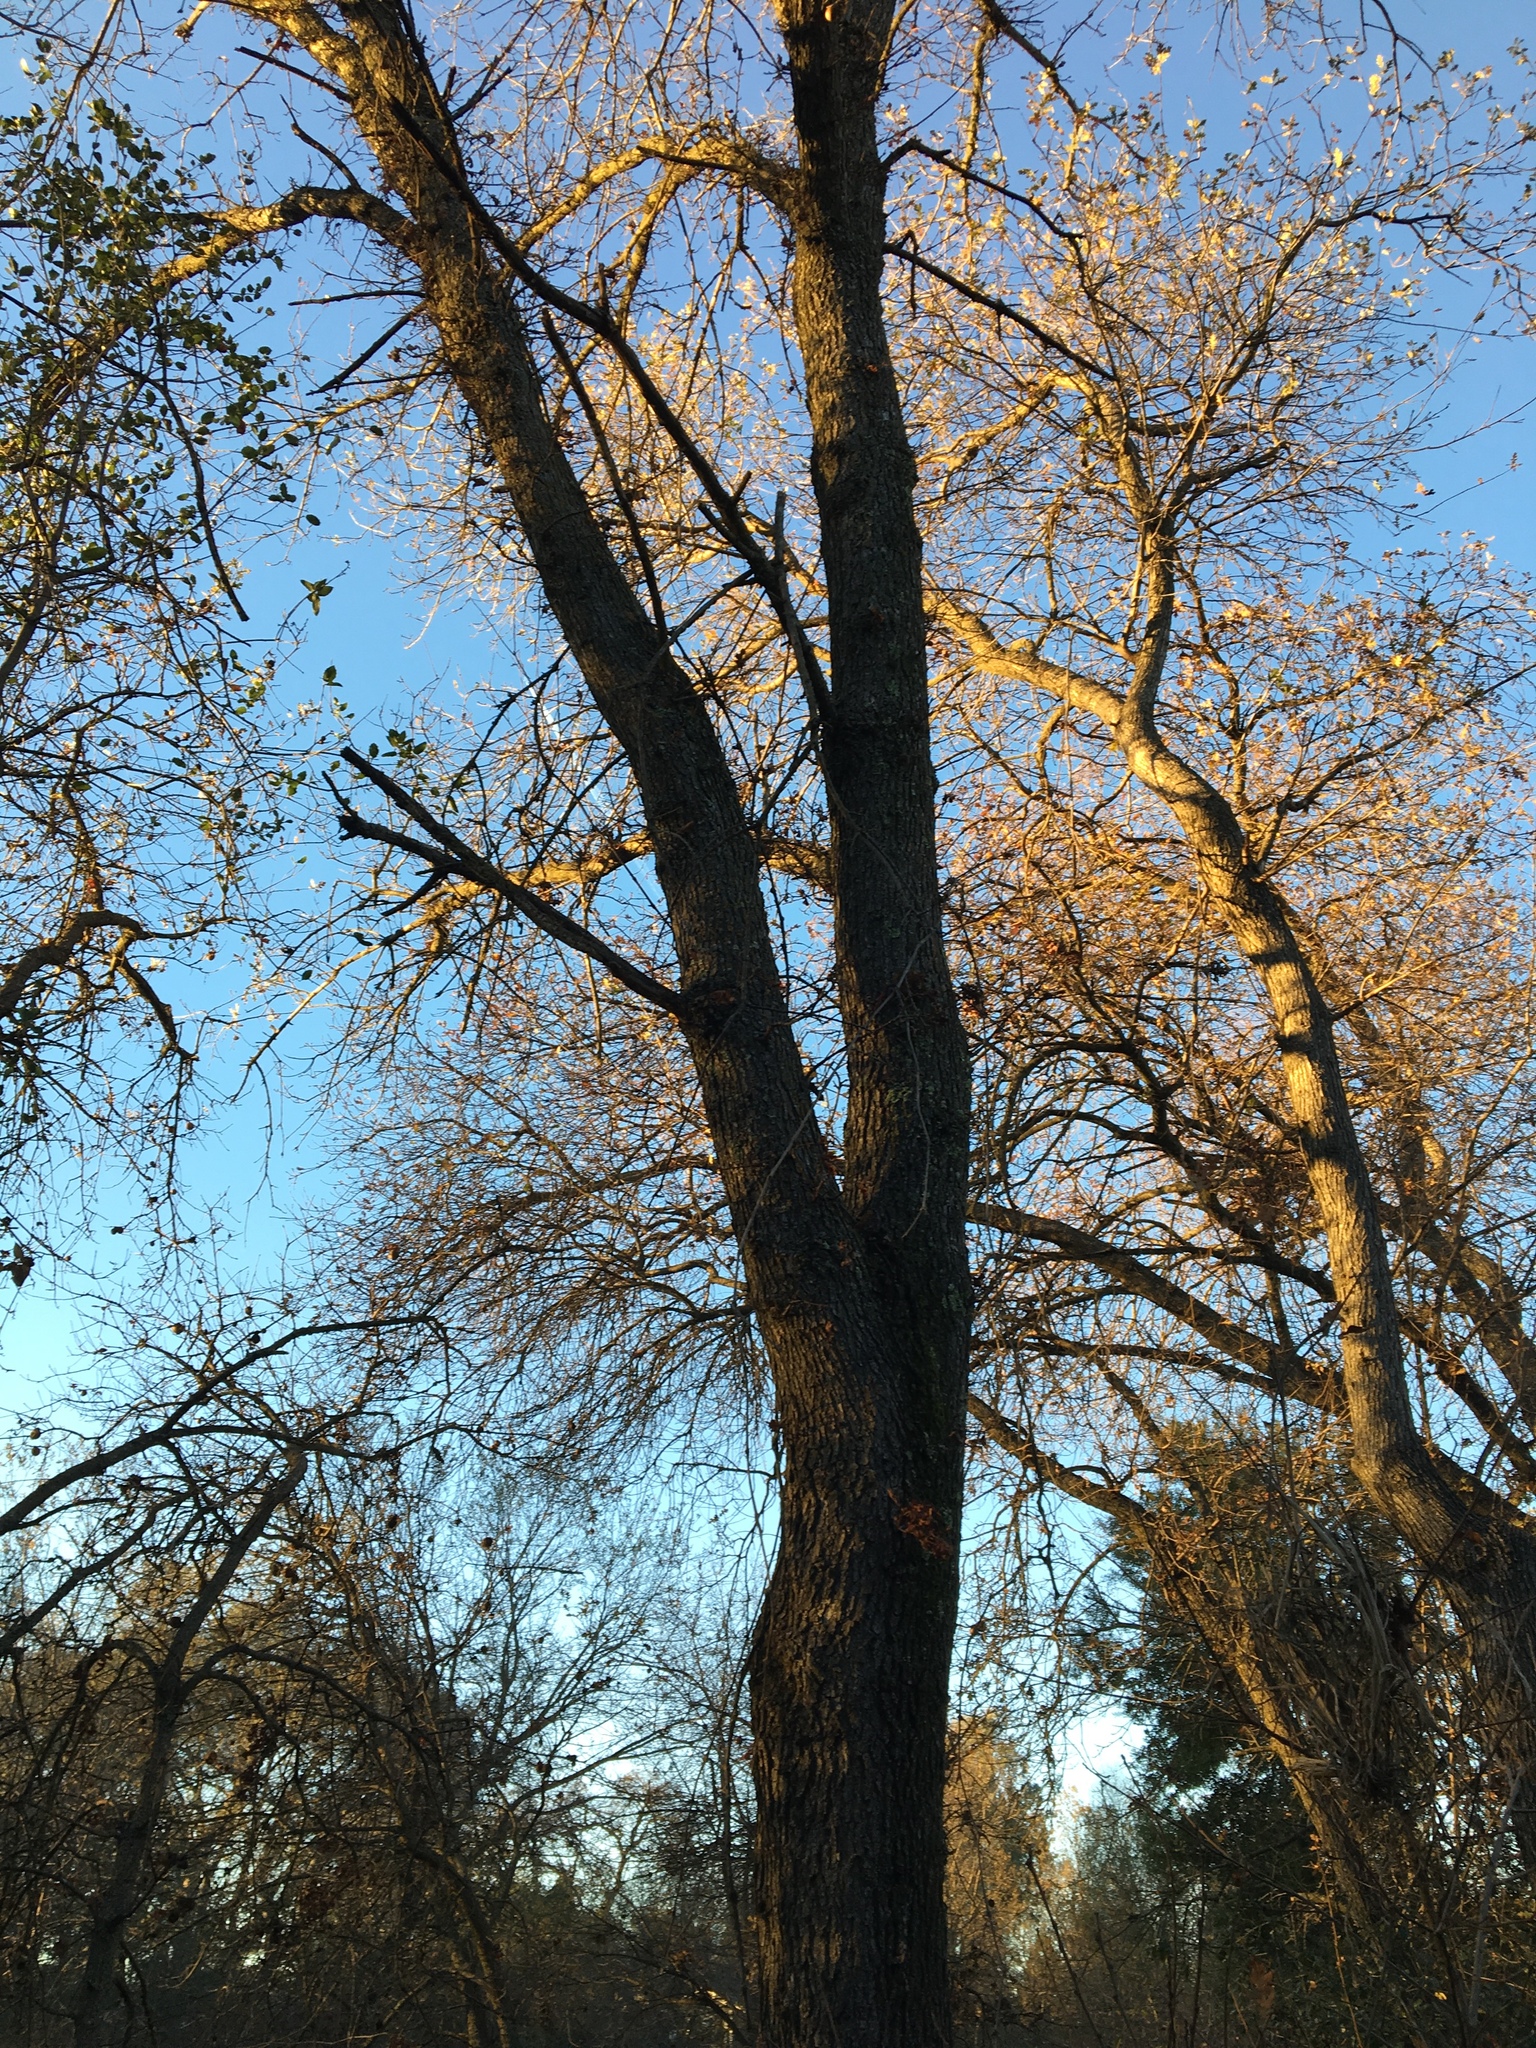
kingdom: Plantae
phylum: Tracheophyta
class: Magnoliopsida
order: Fagales
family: Fagaceae
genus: Quercus
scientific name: Quercus douglasii
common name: Blue oak
